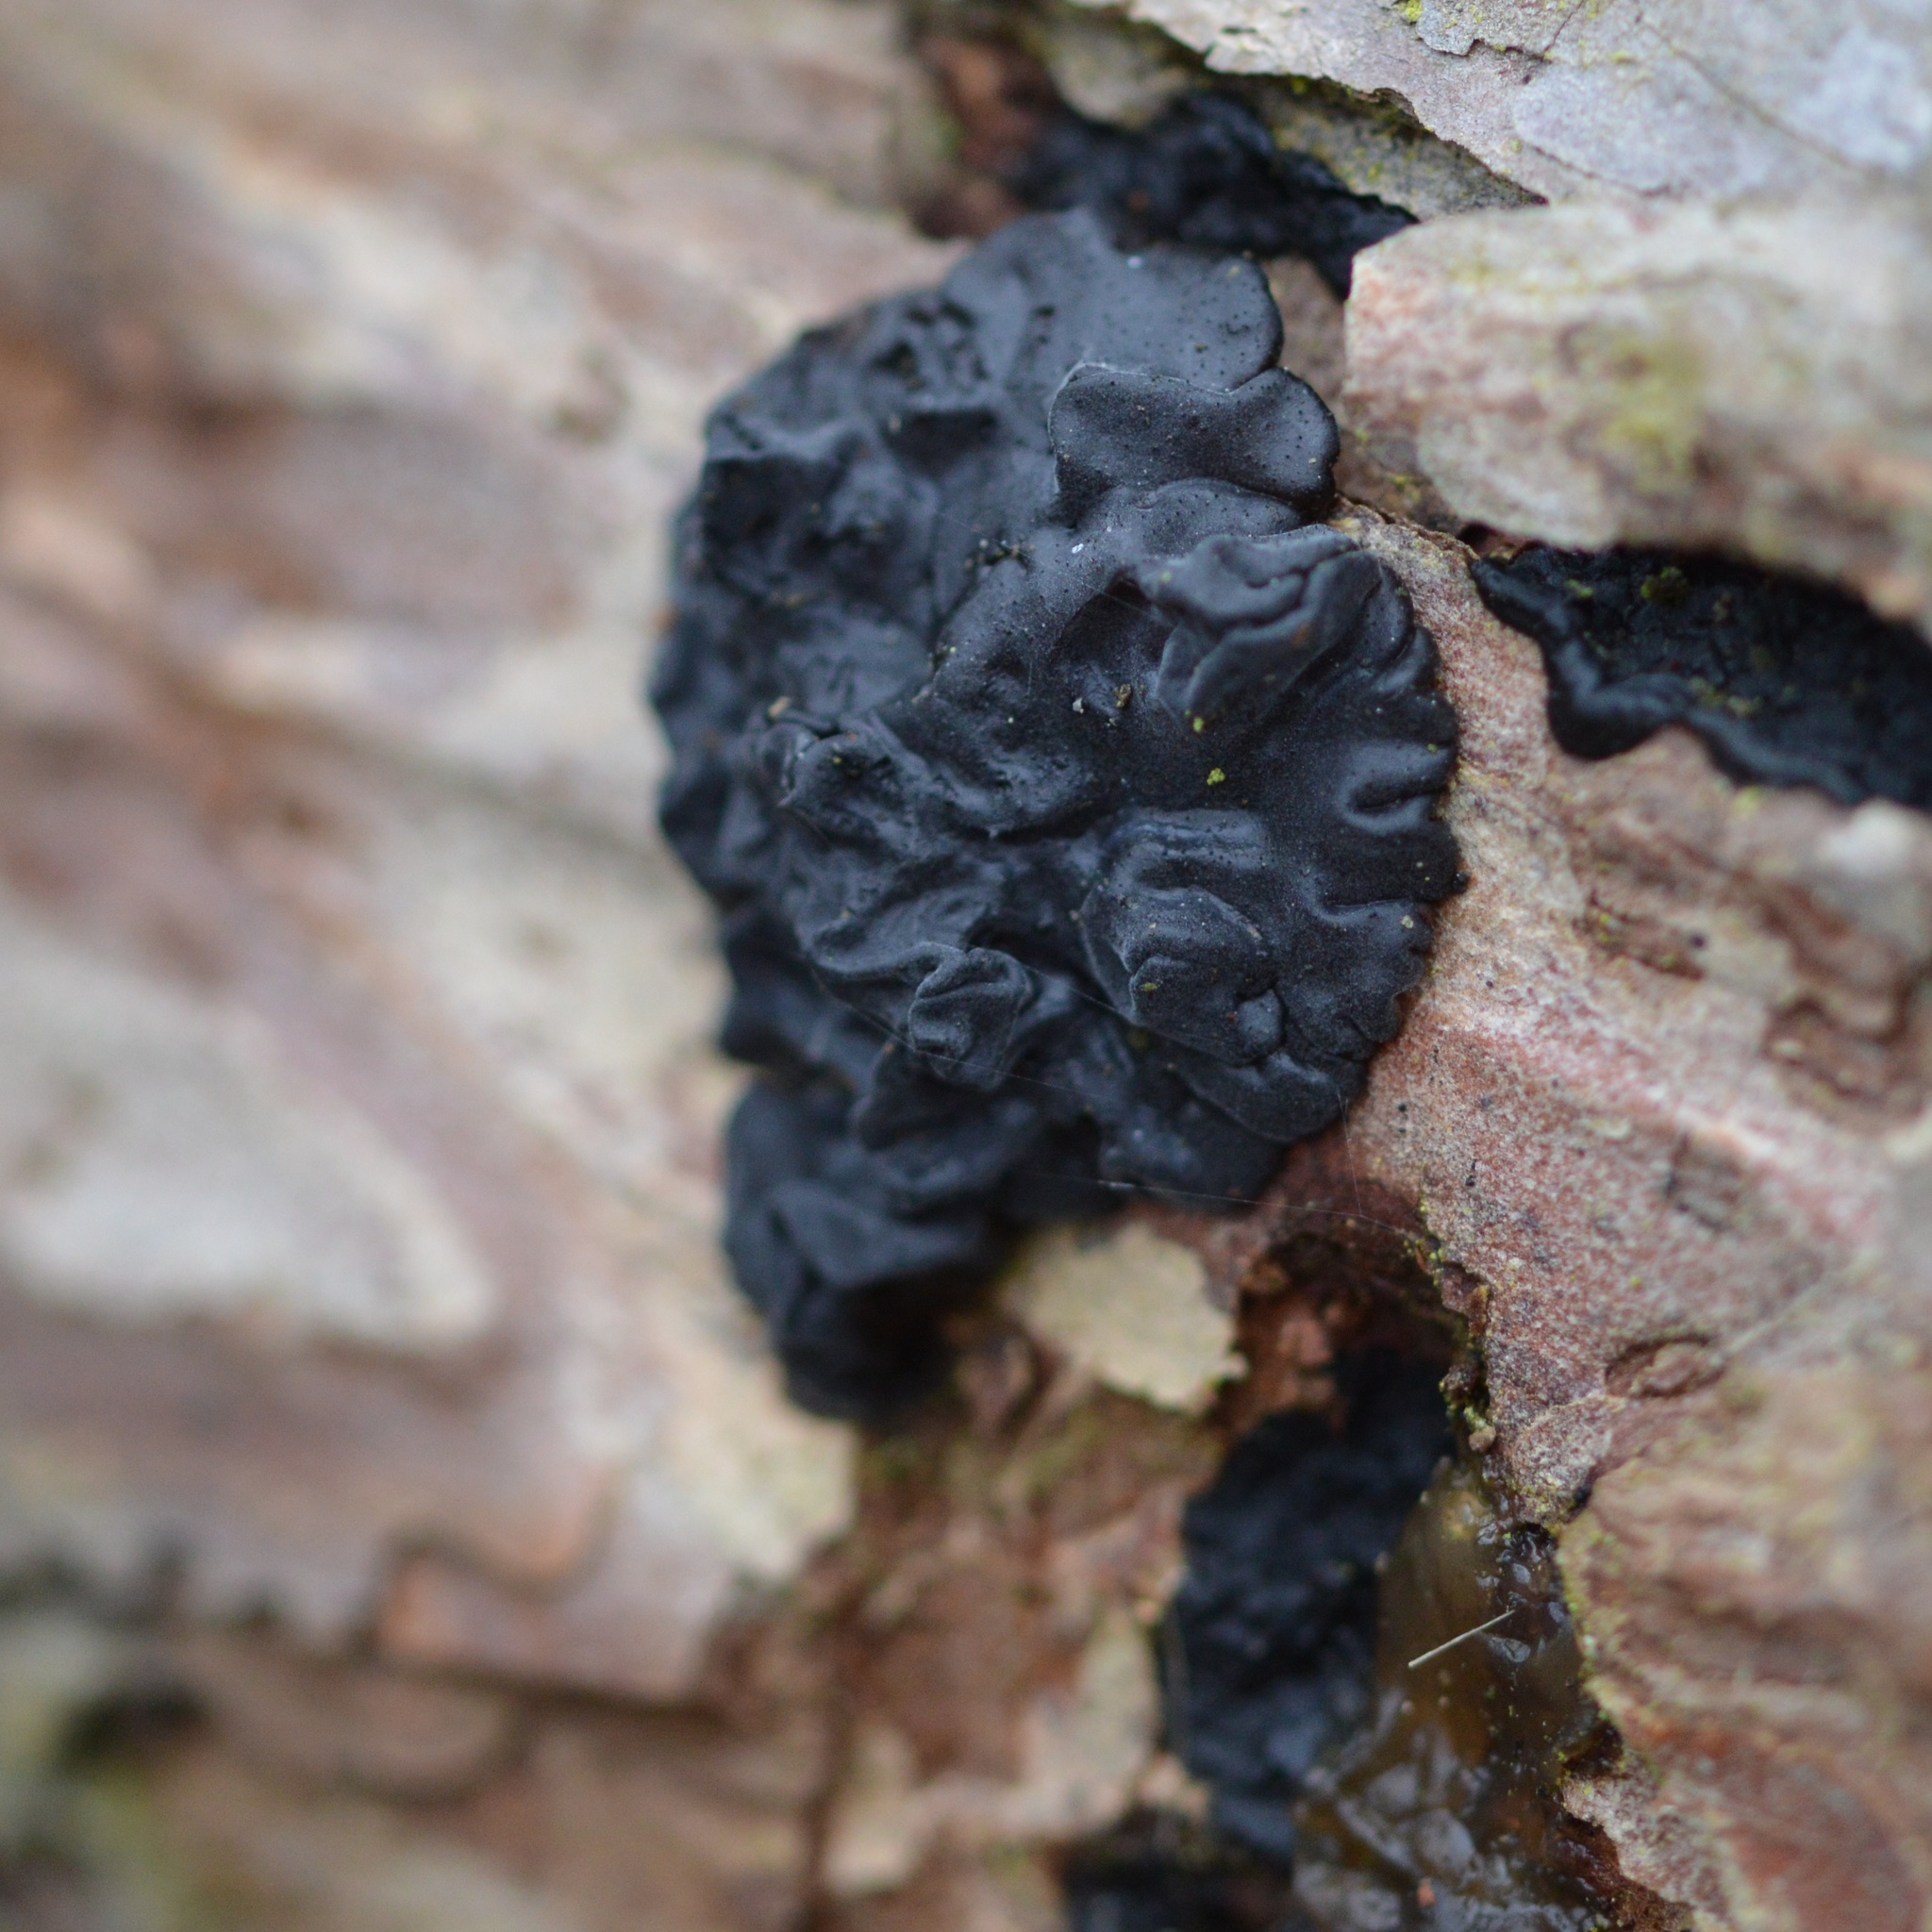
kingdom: Fungi
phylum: Basidiomycota
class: Agaricomycetes
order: Auriculariales
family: Auriculariaceae
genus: Exidia
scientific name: Exidia glandulosa
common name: Witches' butter
